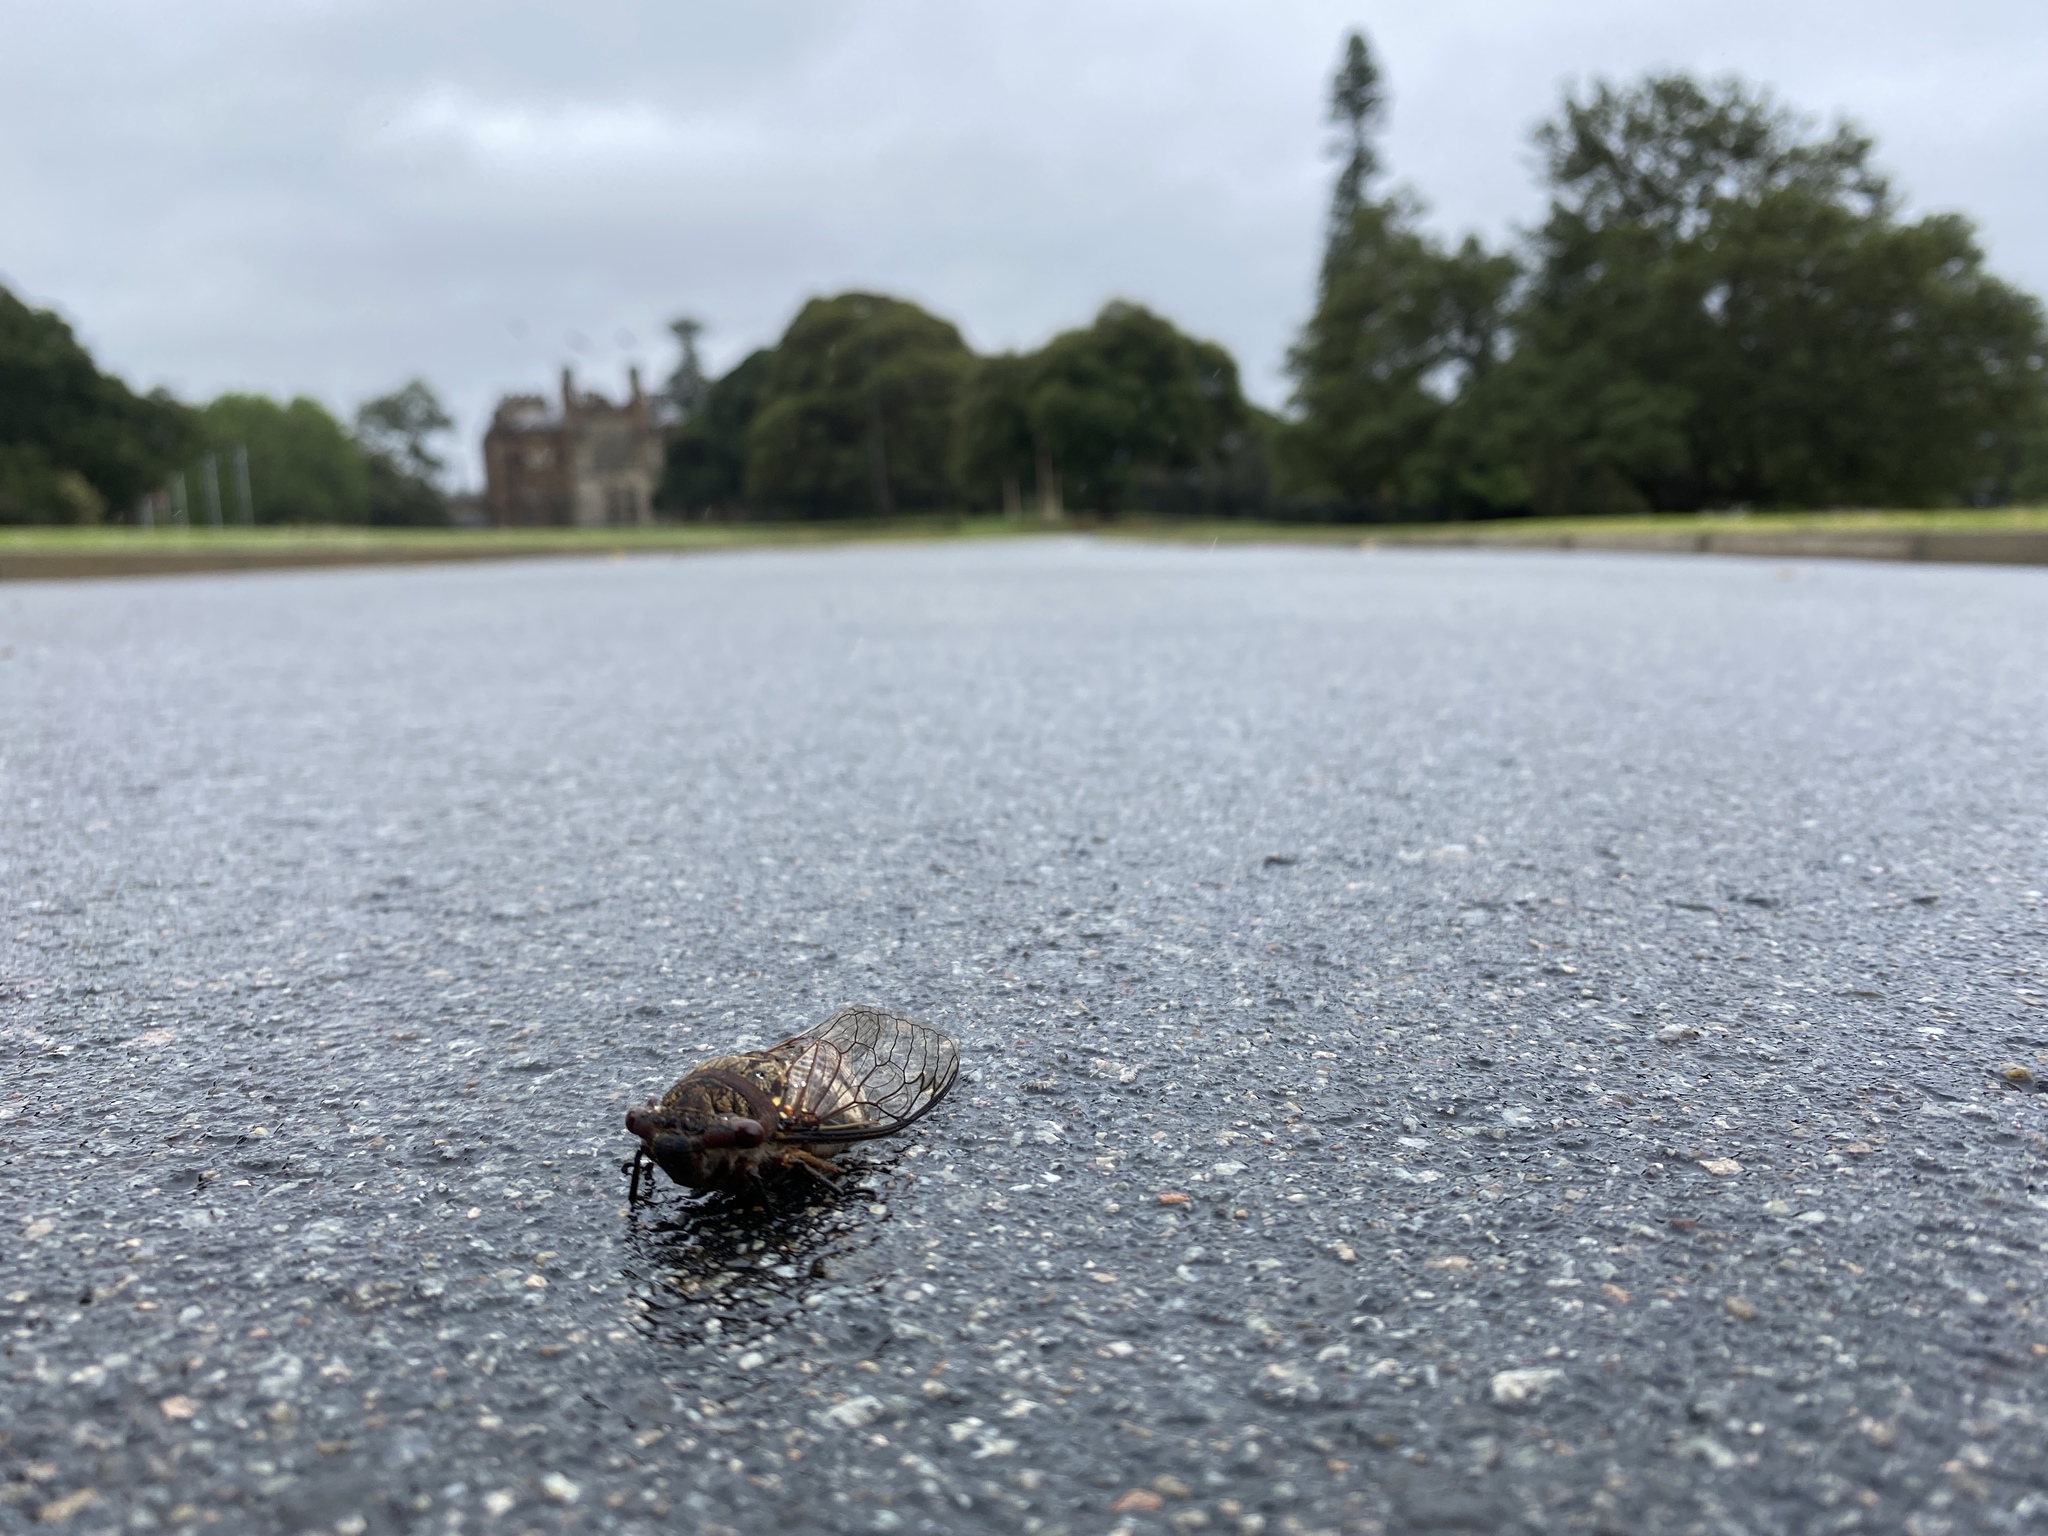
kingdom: Animalia
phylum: Arthropoda
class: Insecta
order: Hemiptera
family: Cicadidae
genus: Psaltoda
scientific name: Psaltoda plaga
